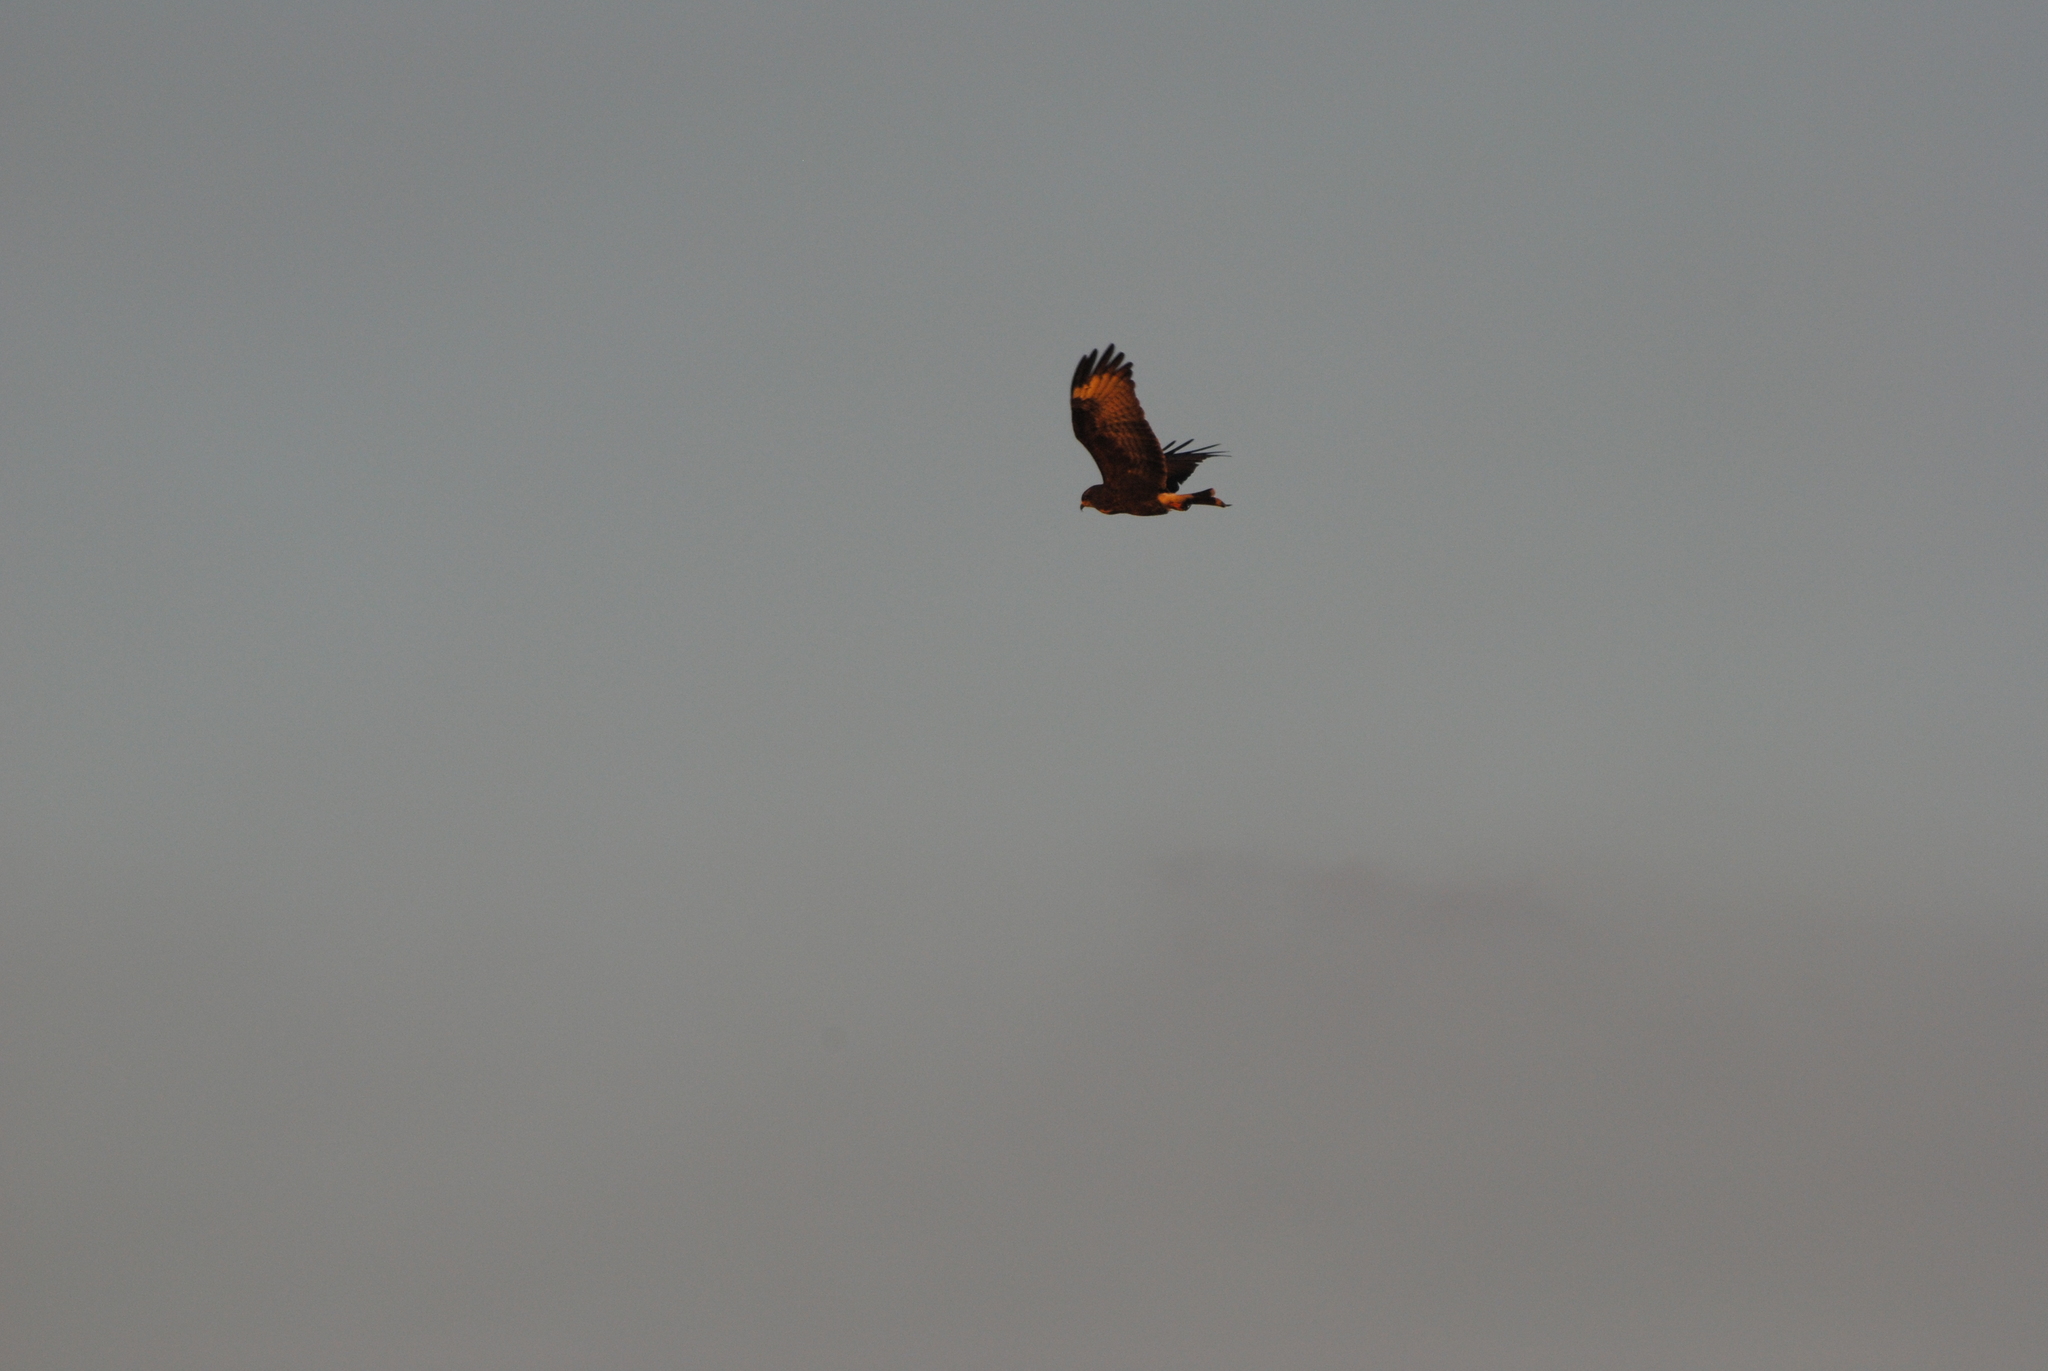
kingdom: Animalia
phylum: Chordata
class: Aves
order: Accipitriformes
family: Accipitridae
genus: Rostrhamus
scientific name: Rostrhamus sociabilis
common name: Snail kite
